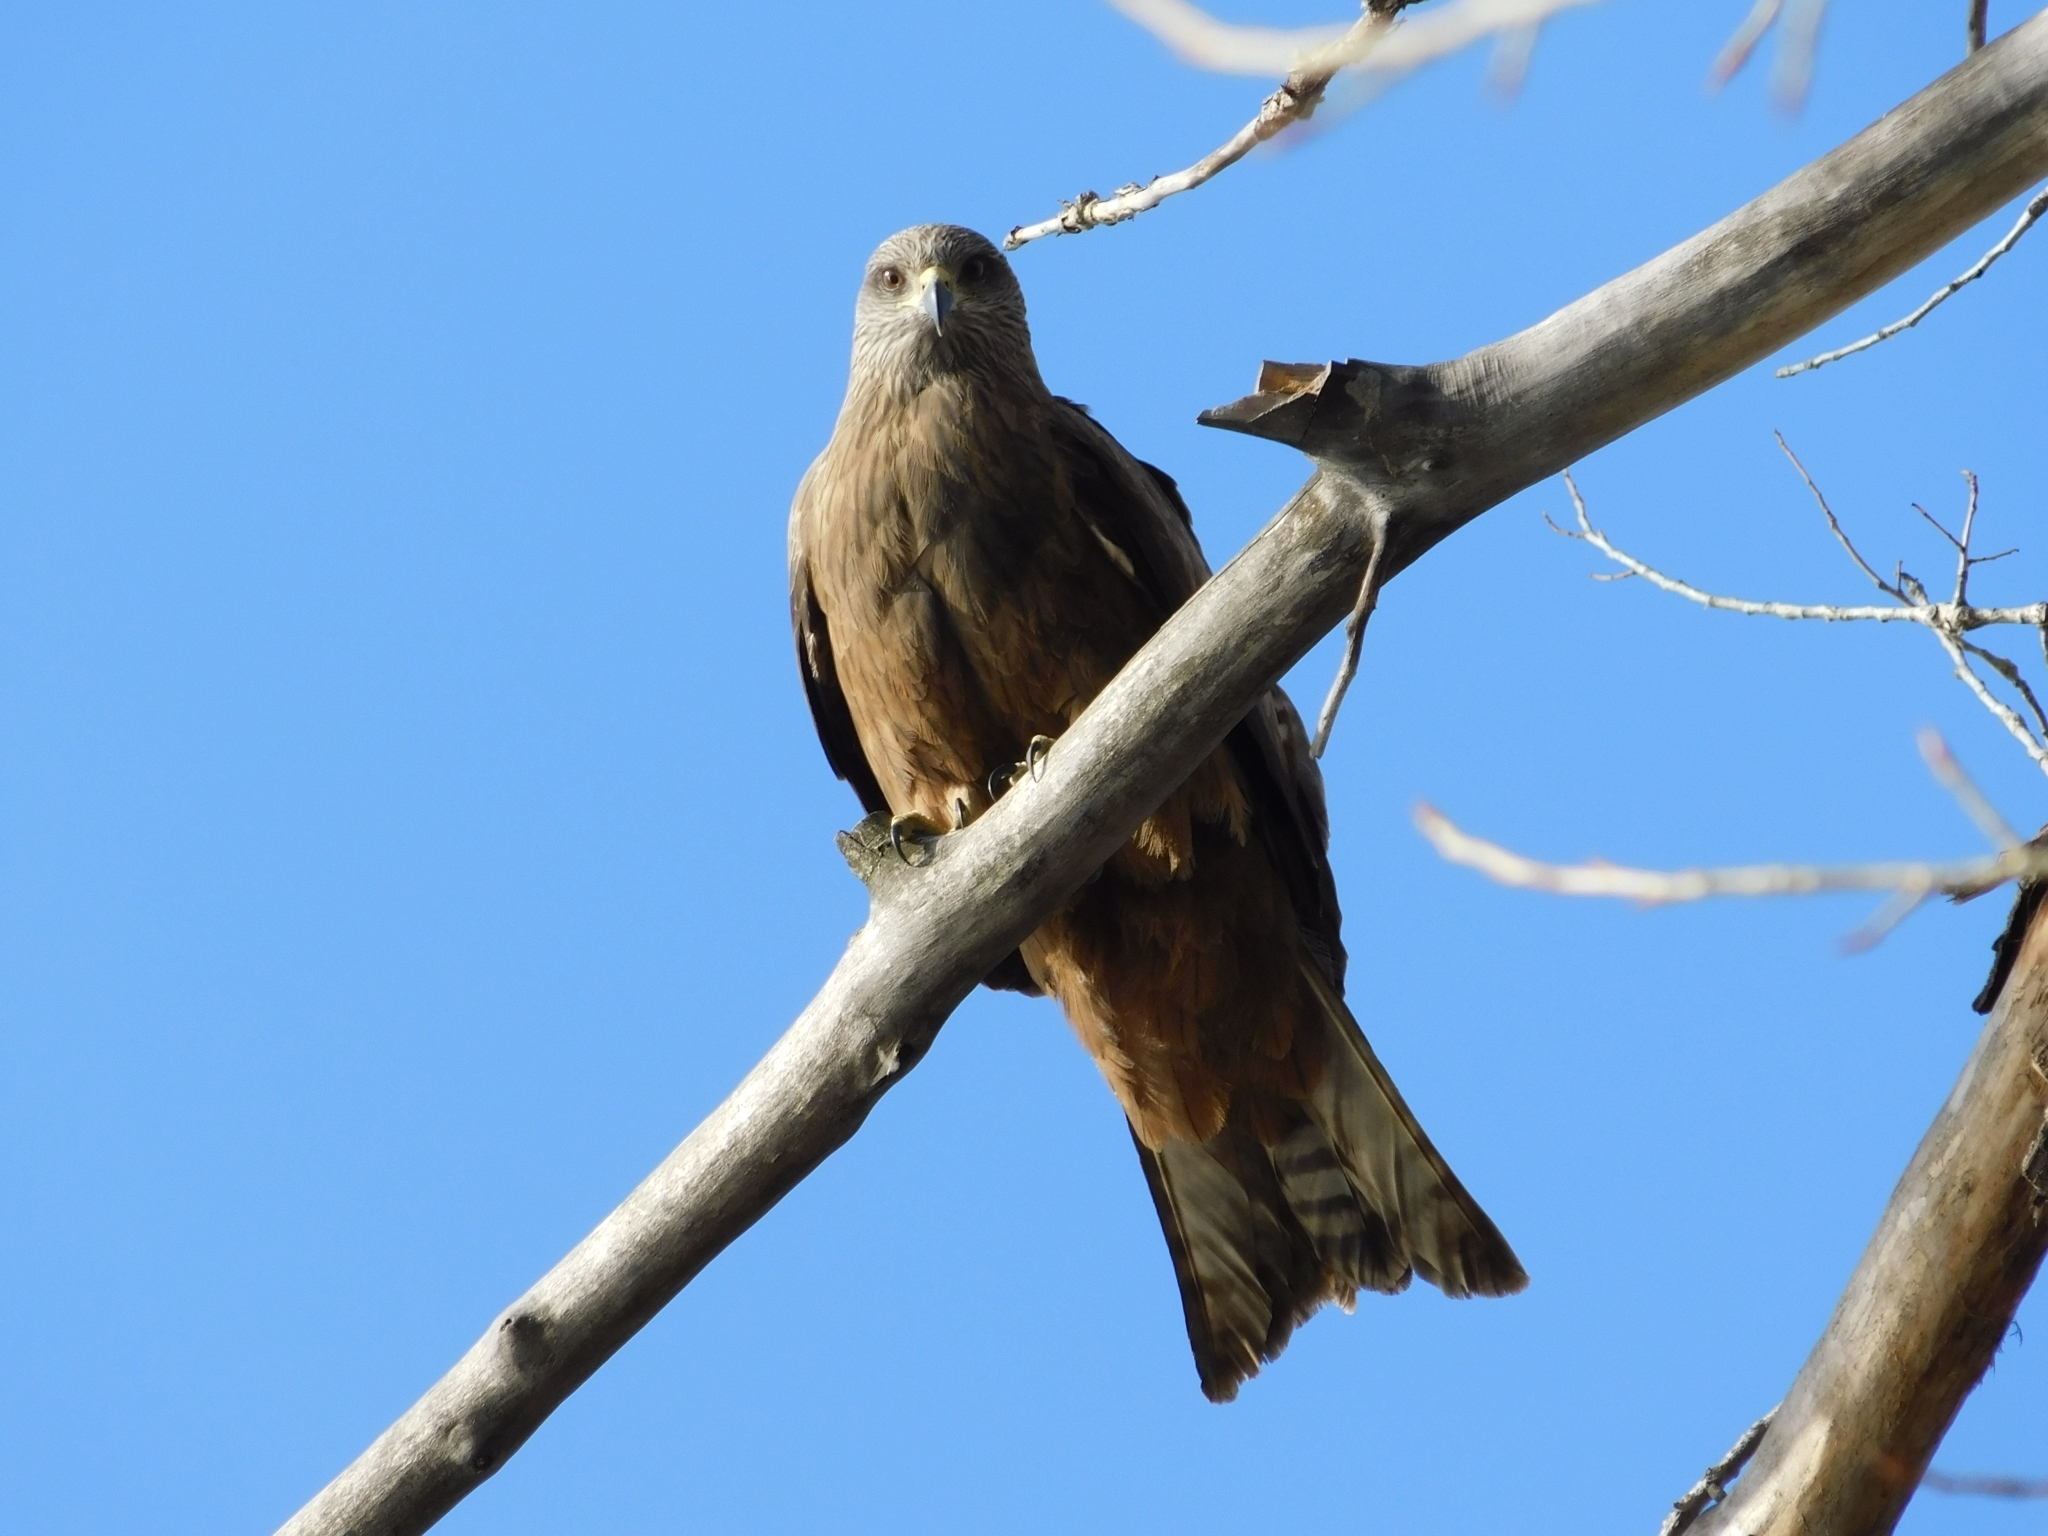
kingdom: Animalia
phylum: Chordata
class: Aves
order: Accipitriformes
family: Accipitridae
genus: Milvus
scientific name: Milvus migrans
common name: Black kite
